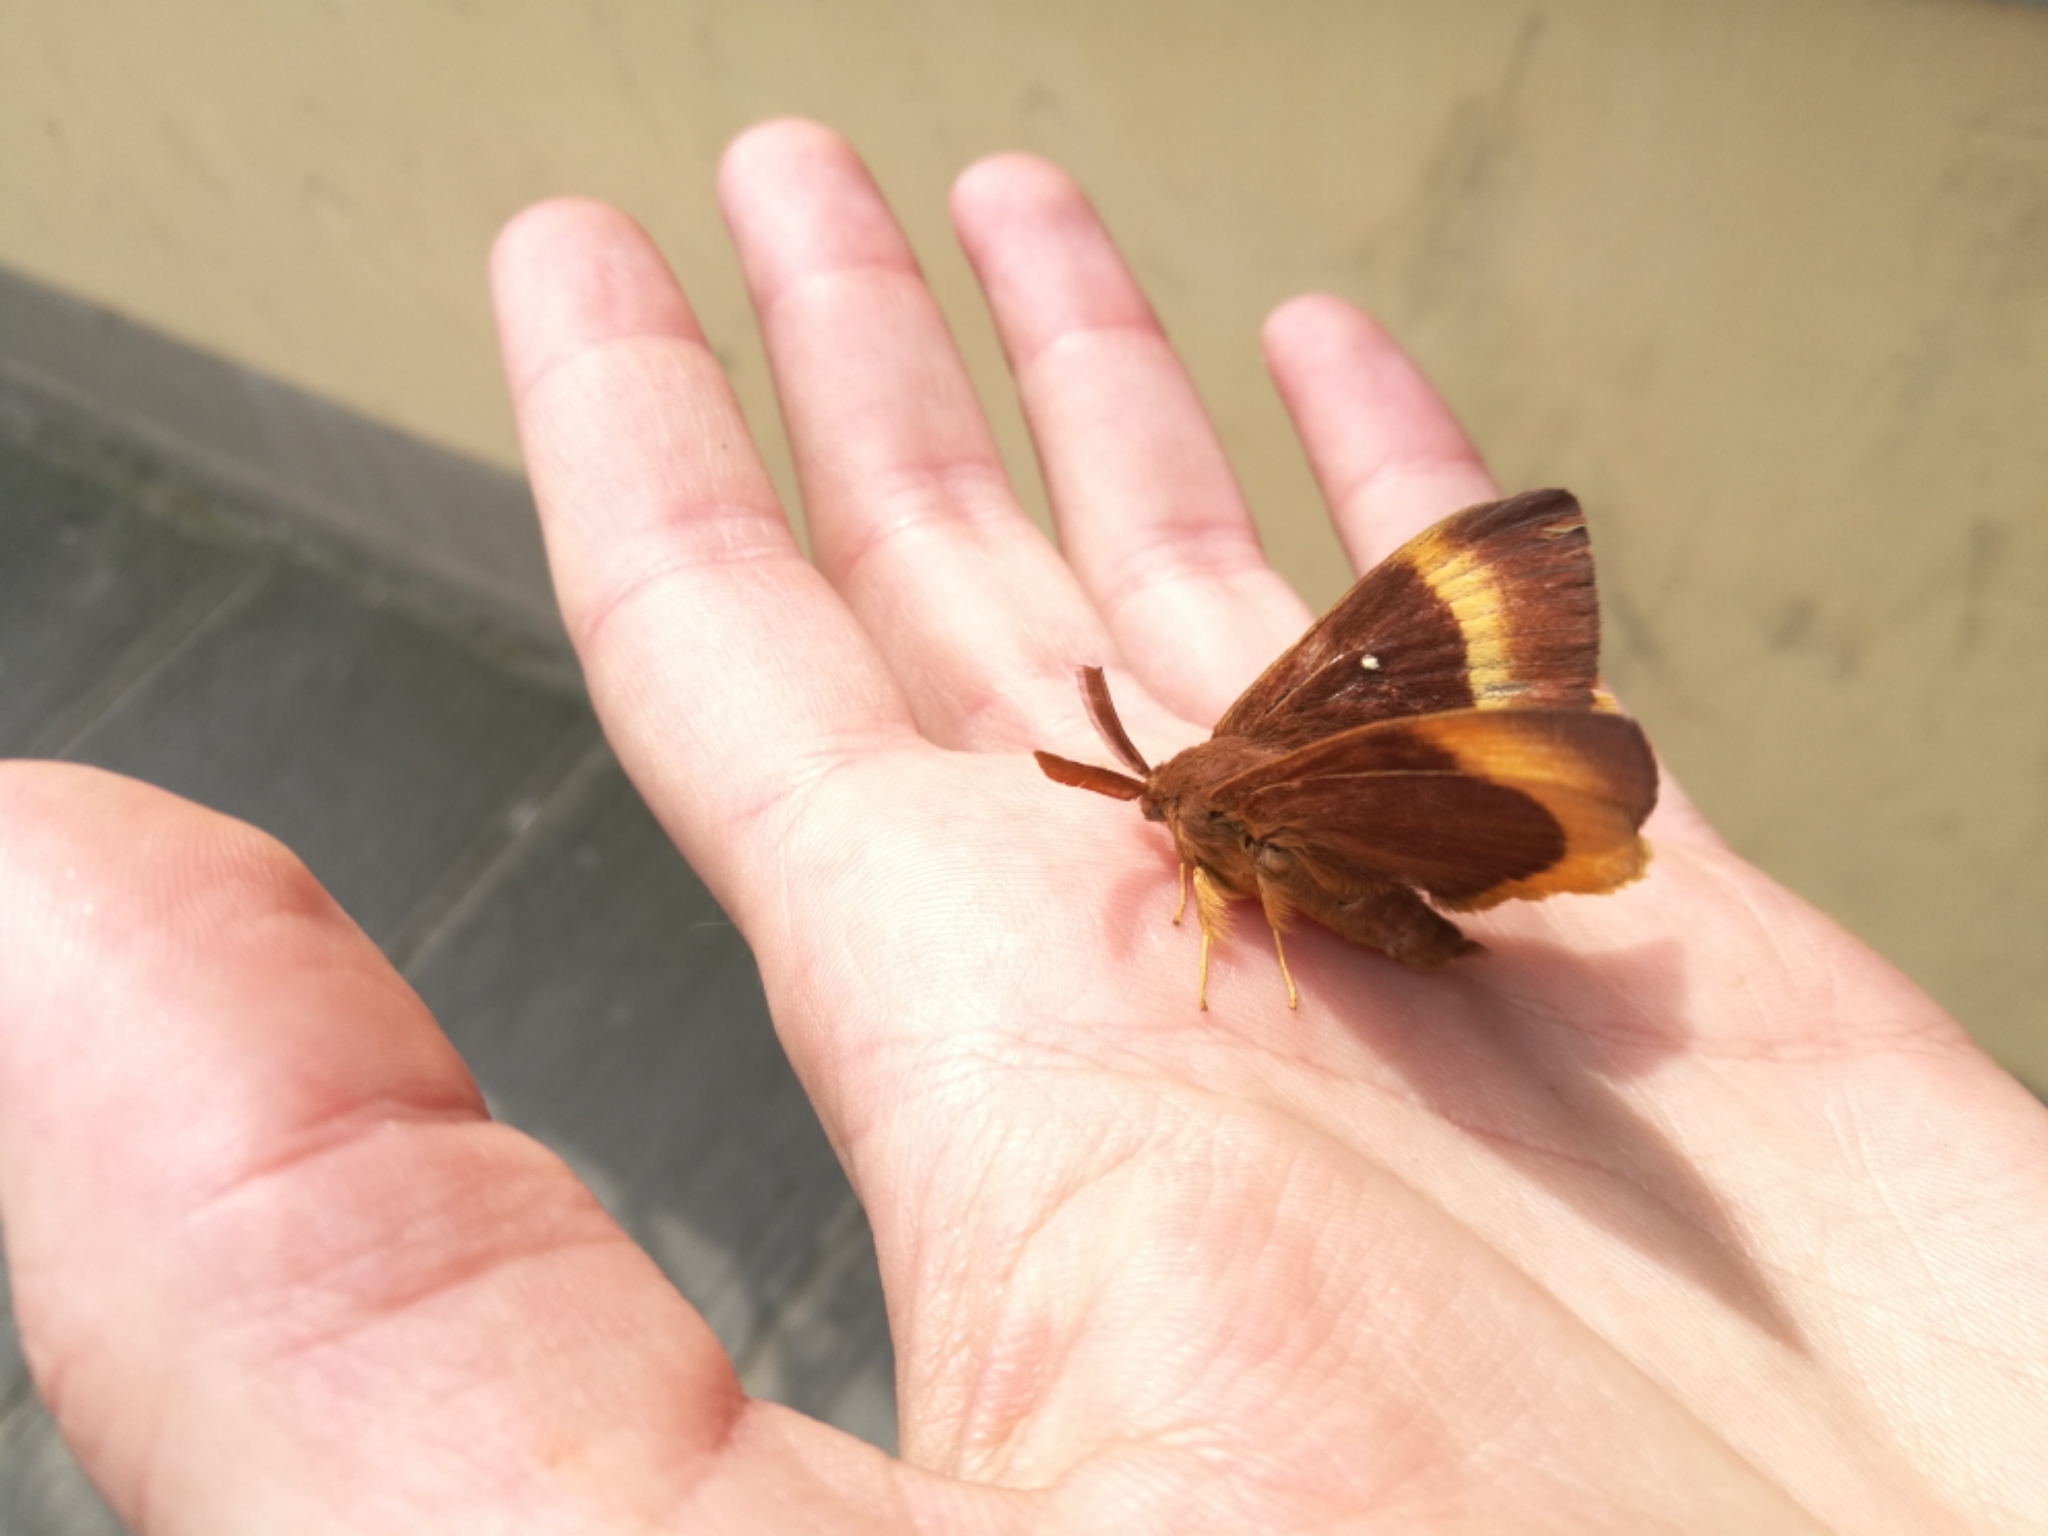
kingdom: Animalia
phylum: Arthropoda
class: Insecta
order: Lepidoptera
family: Lasiocampidae
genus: Lasiocampa
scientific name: Lasiocampa quercus
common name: Oak eggar
